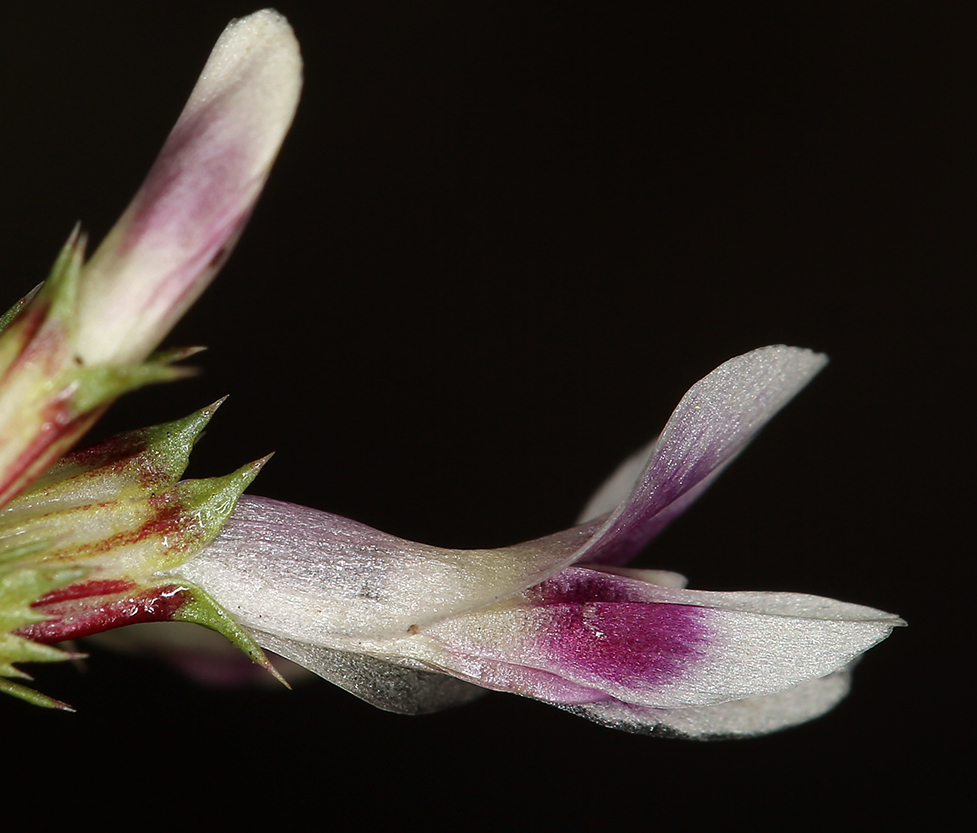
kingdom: Plantae
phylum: Tracheophyta
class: Magnoliopsida
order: Fabales
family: Fabaceae
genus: Trifolium
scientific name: Trifolium willdenovii
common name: Tomcat clover
